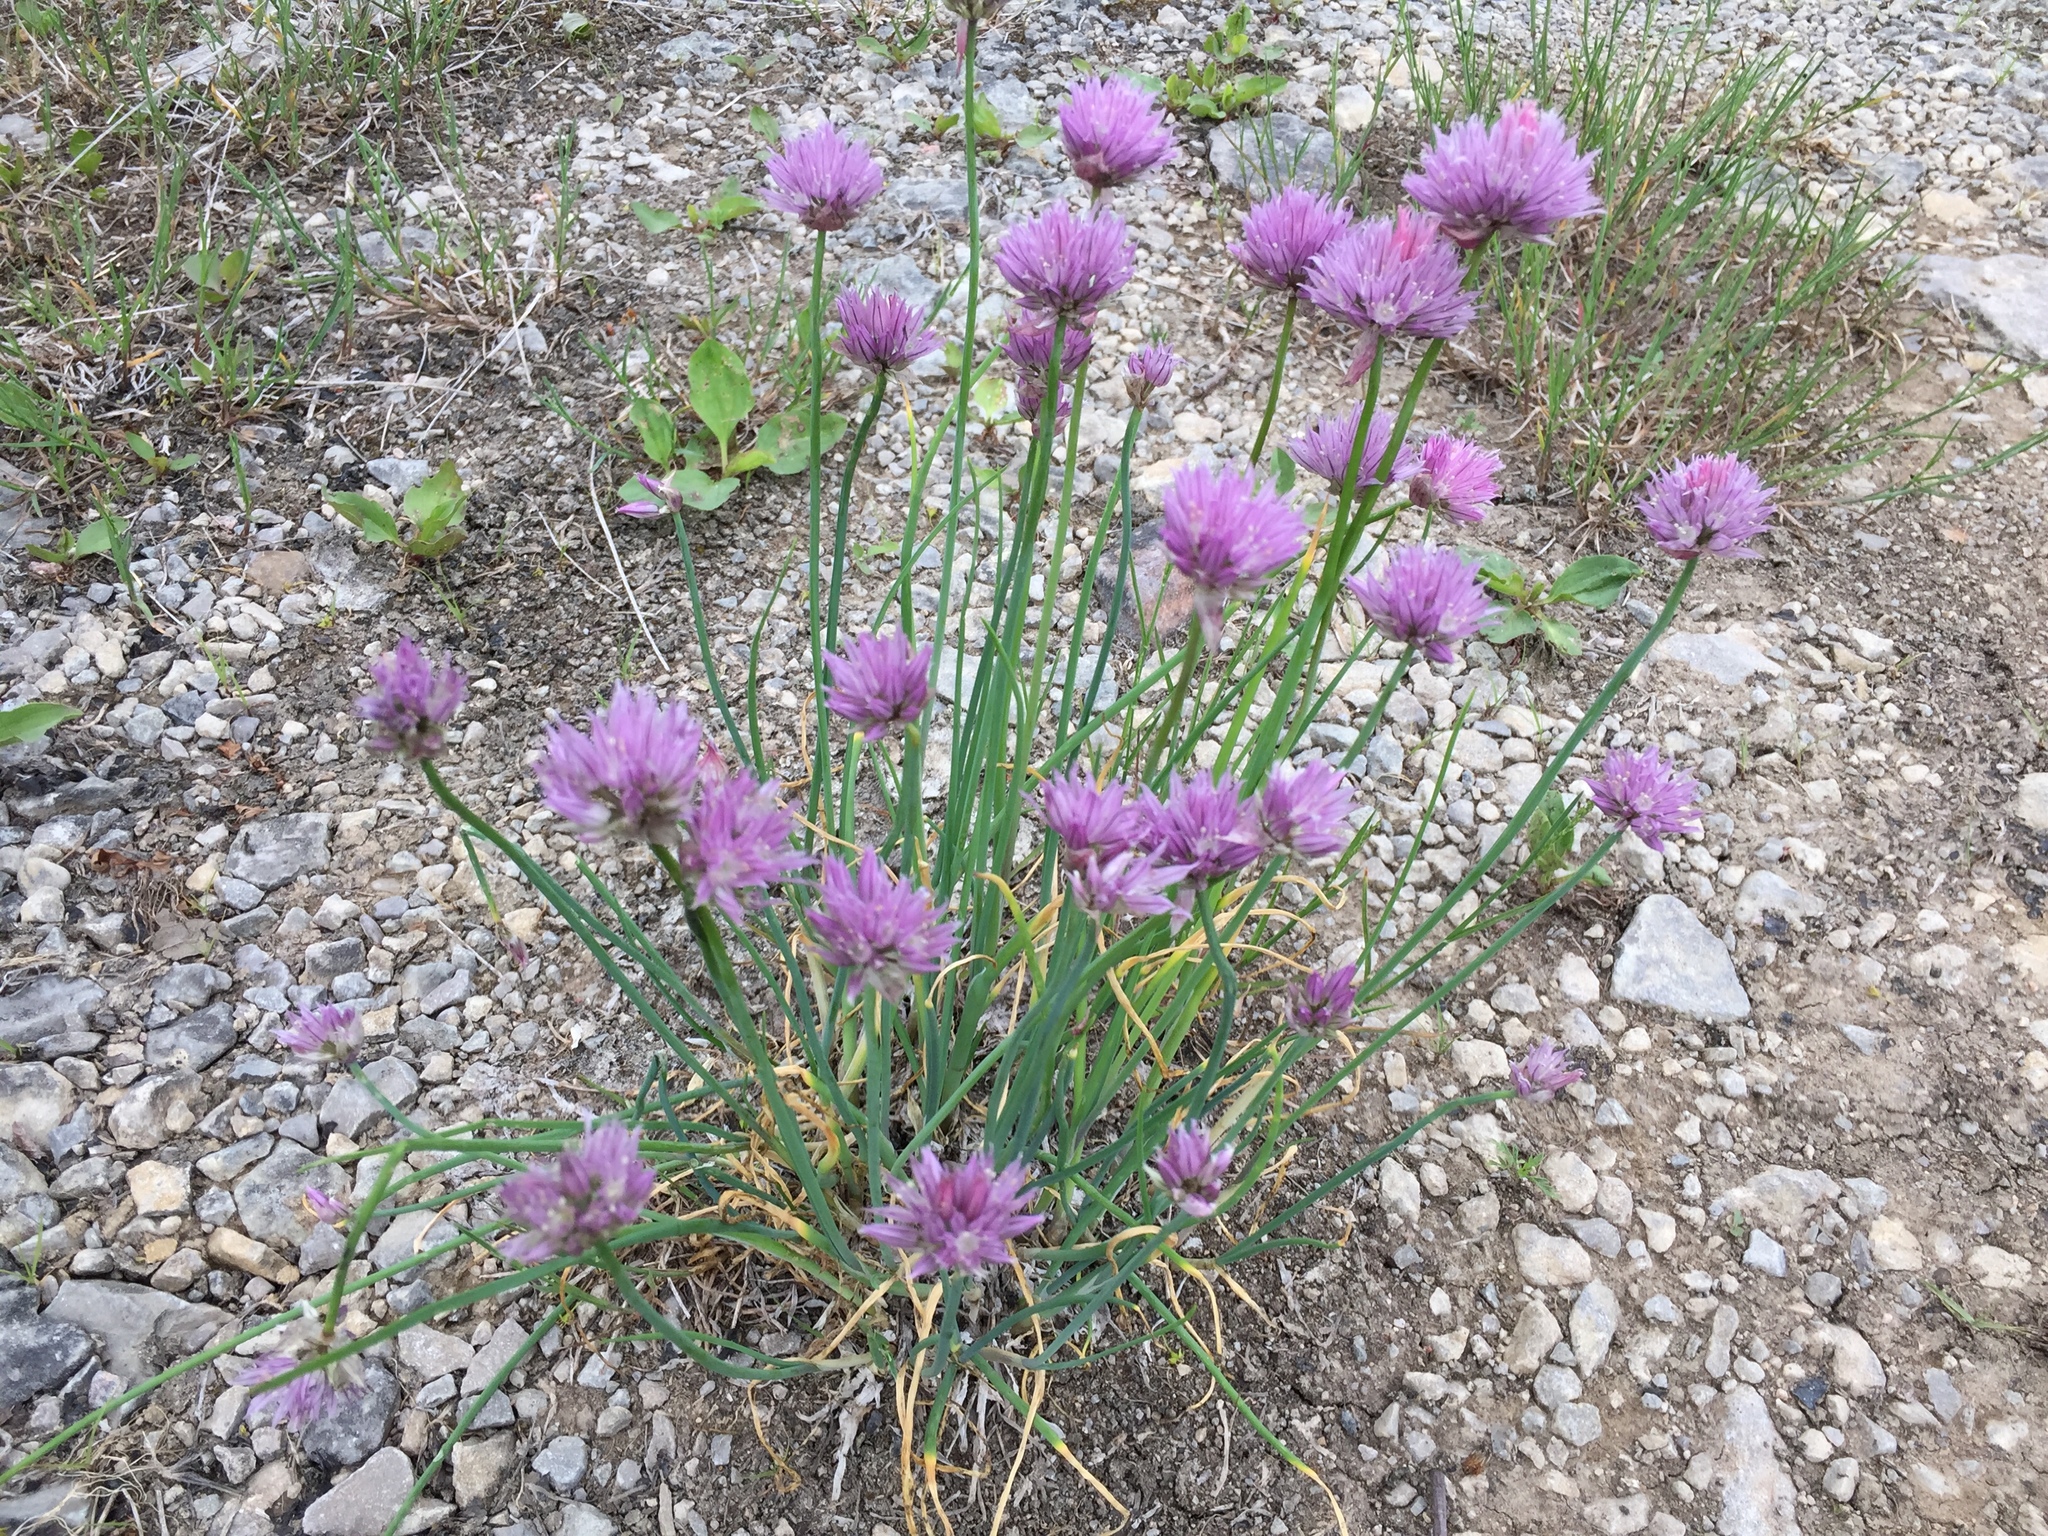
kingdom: Plantae
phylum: Tracheophyta
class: Liliopsida
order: Asparagales
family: Amaryllidaceae
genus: Allium
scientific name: Allium schoenoprasum
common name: Chives
